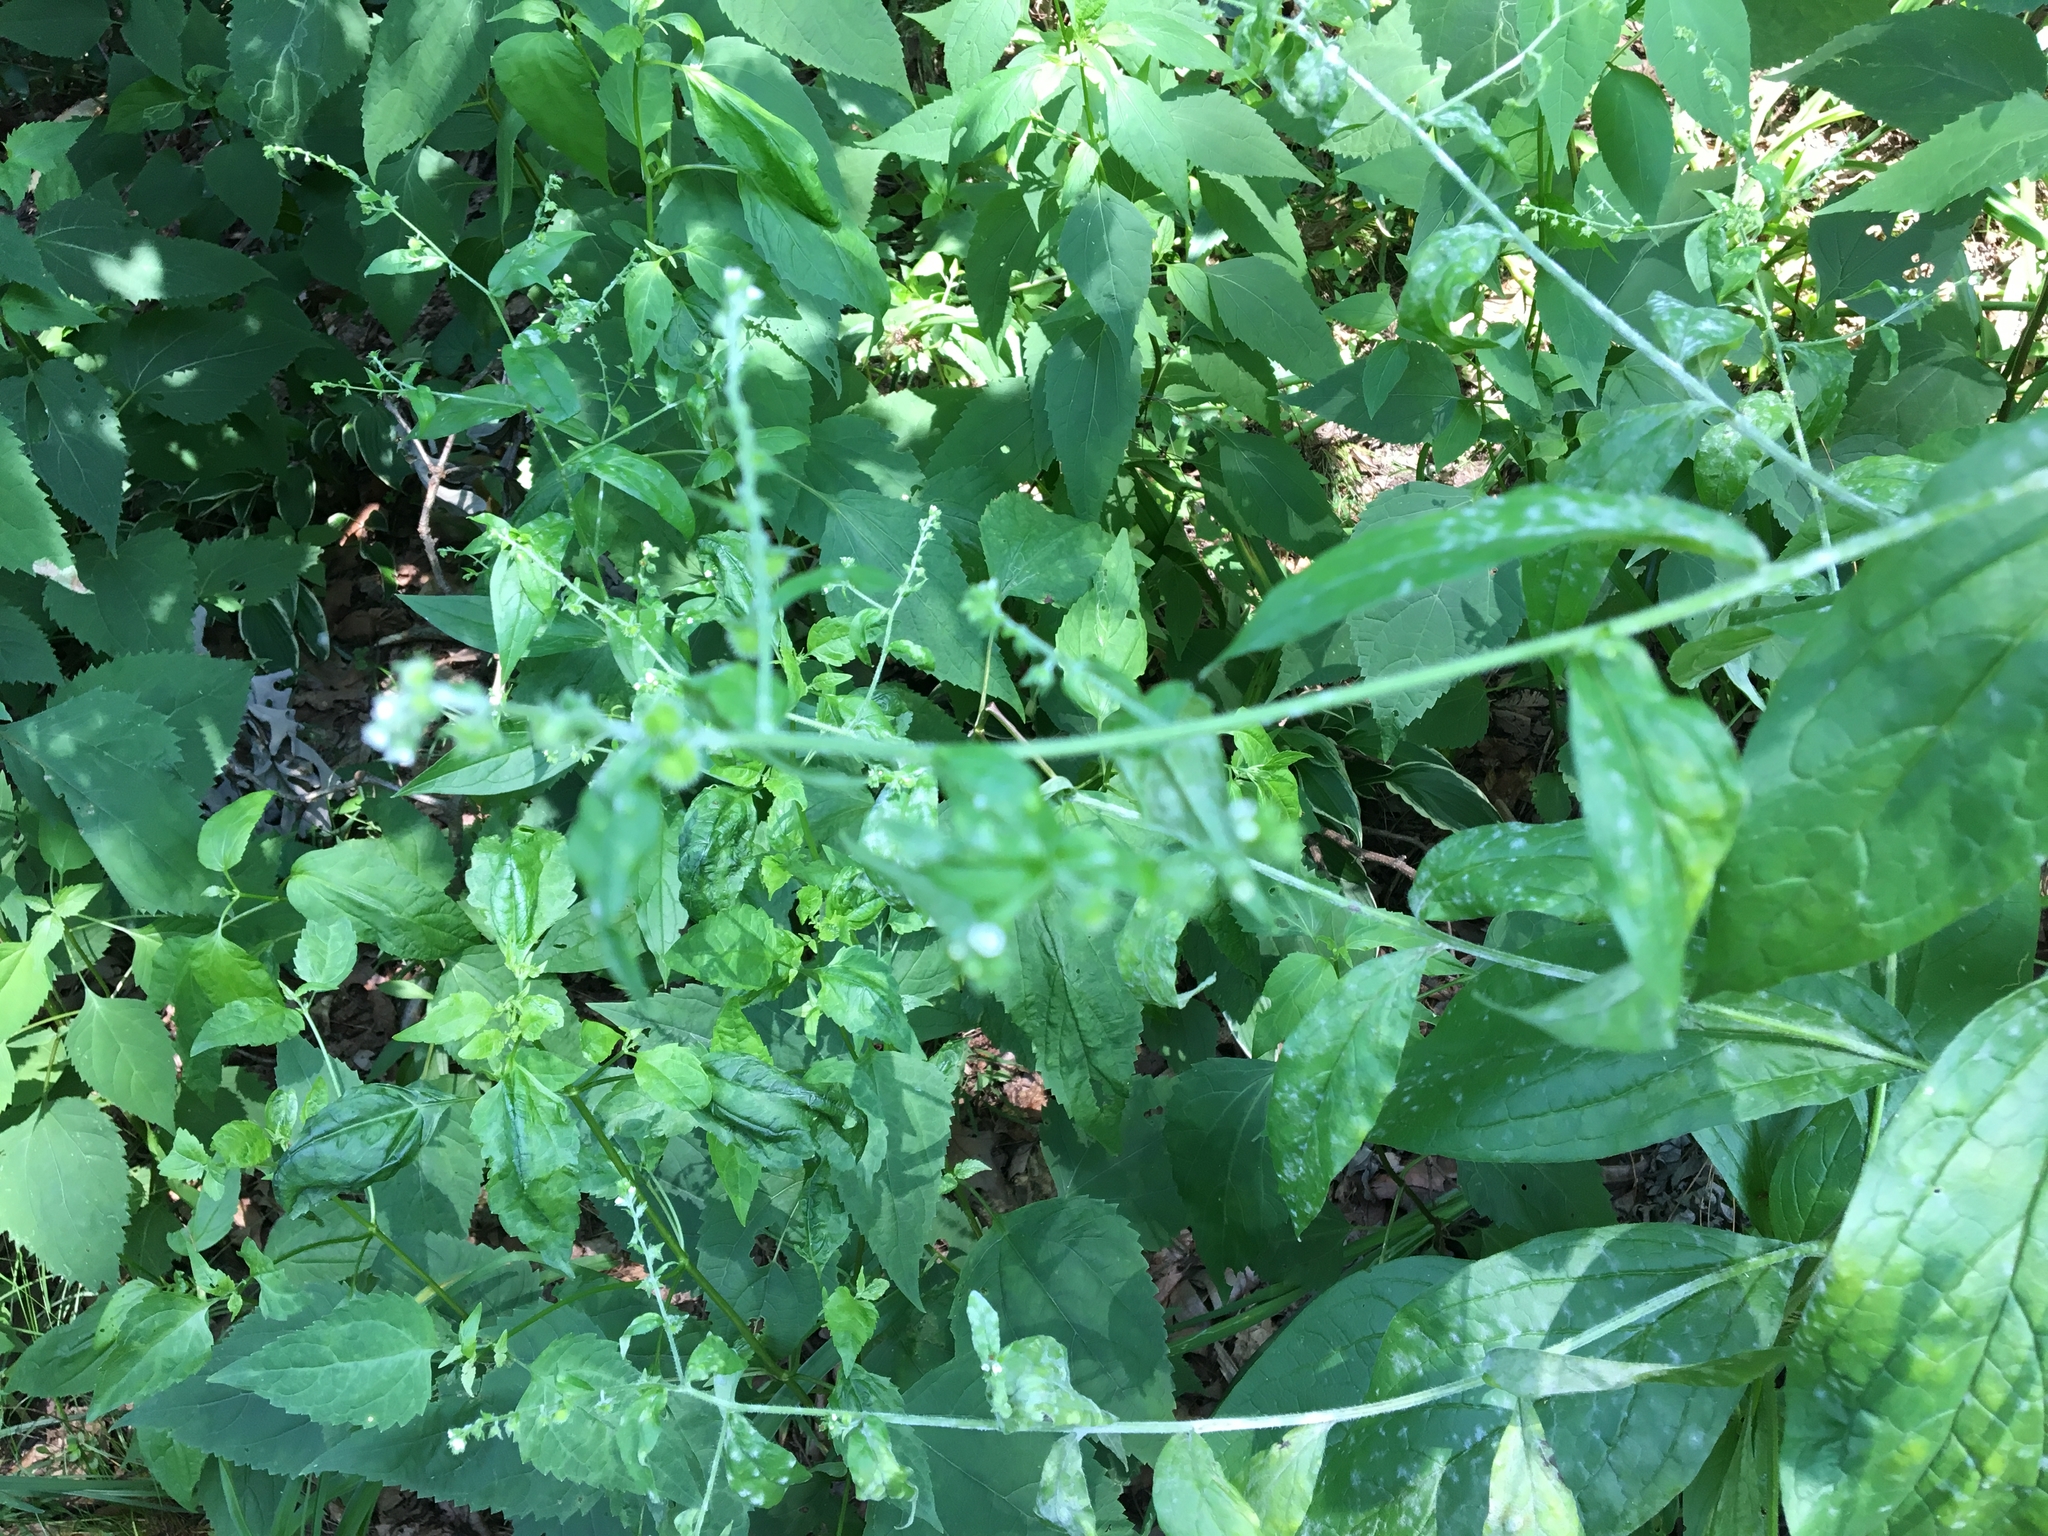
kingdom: Plantae
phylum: Tracheophyta
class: Magnoliopsida
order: Boraginales
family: Boraginaceae
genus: Hackelia
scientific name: Hackelia virginiana
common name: Beggar's-lice
